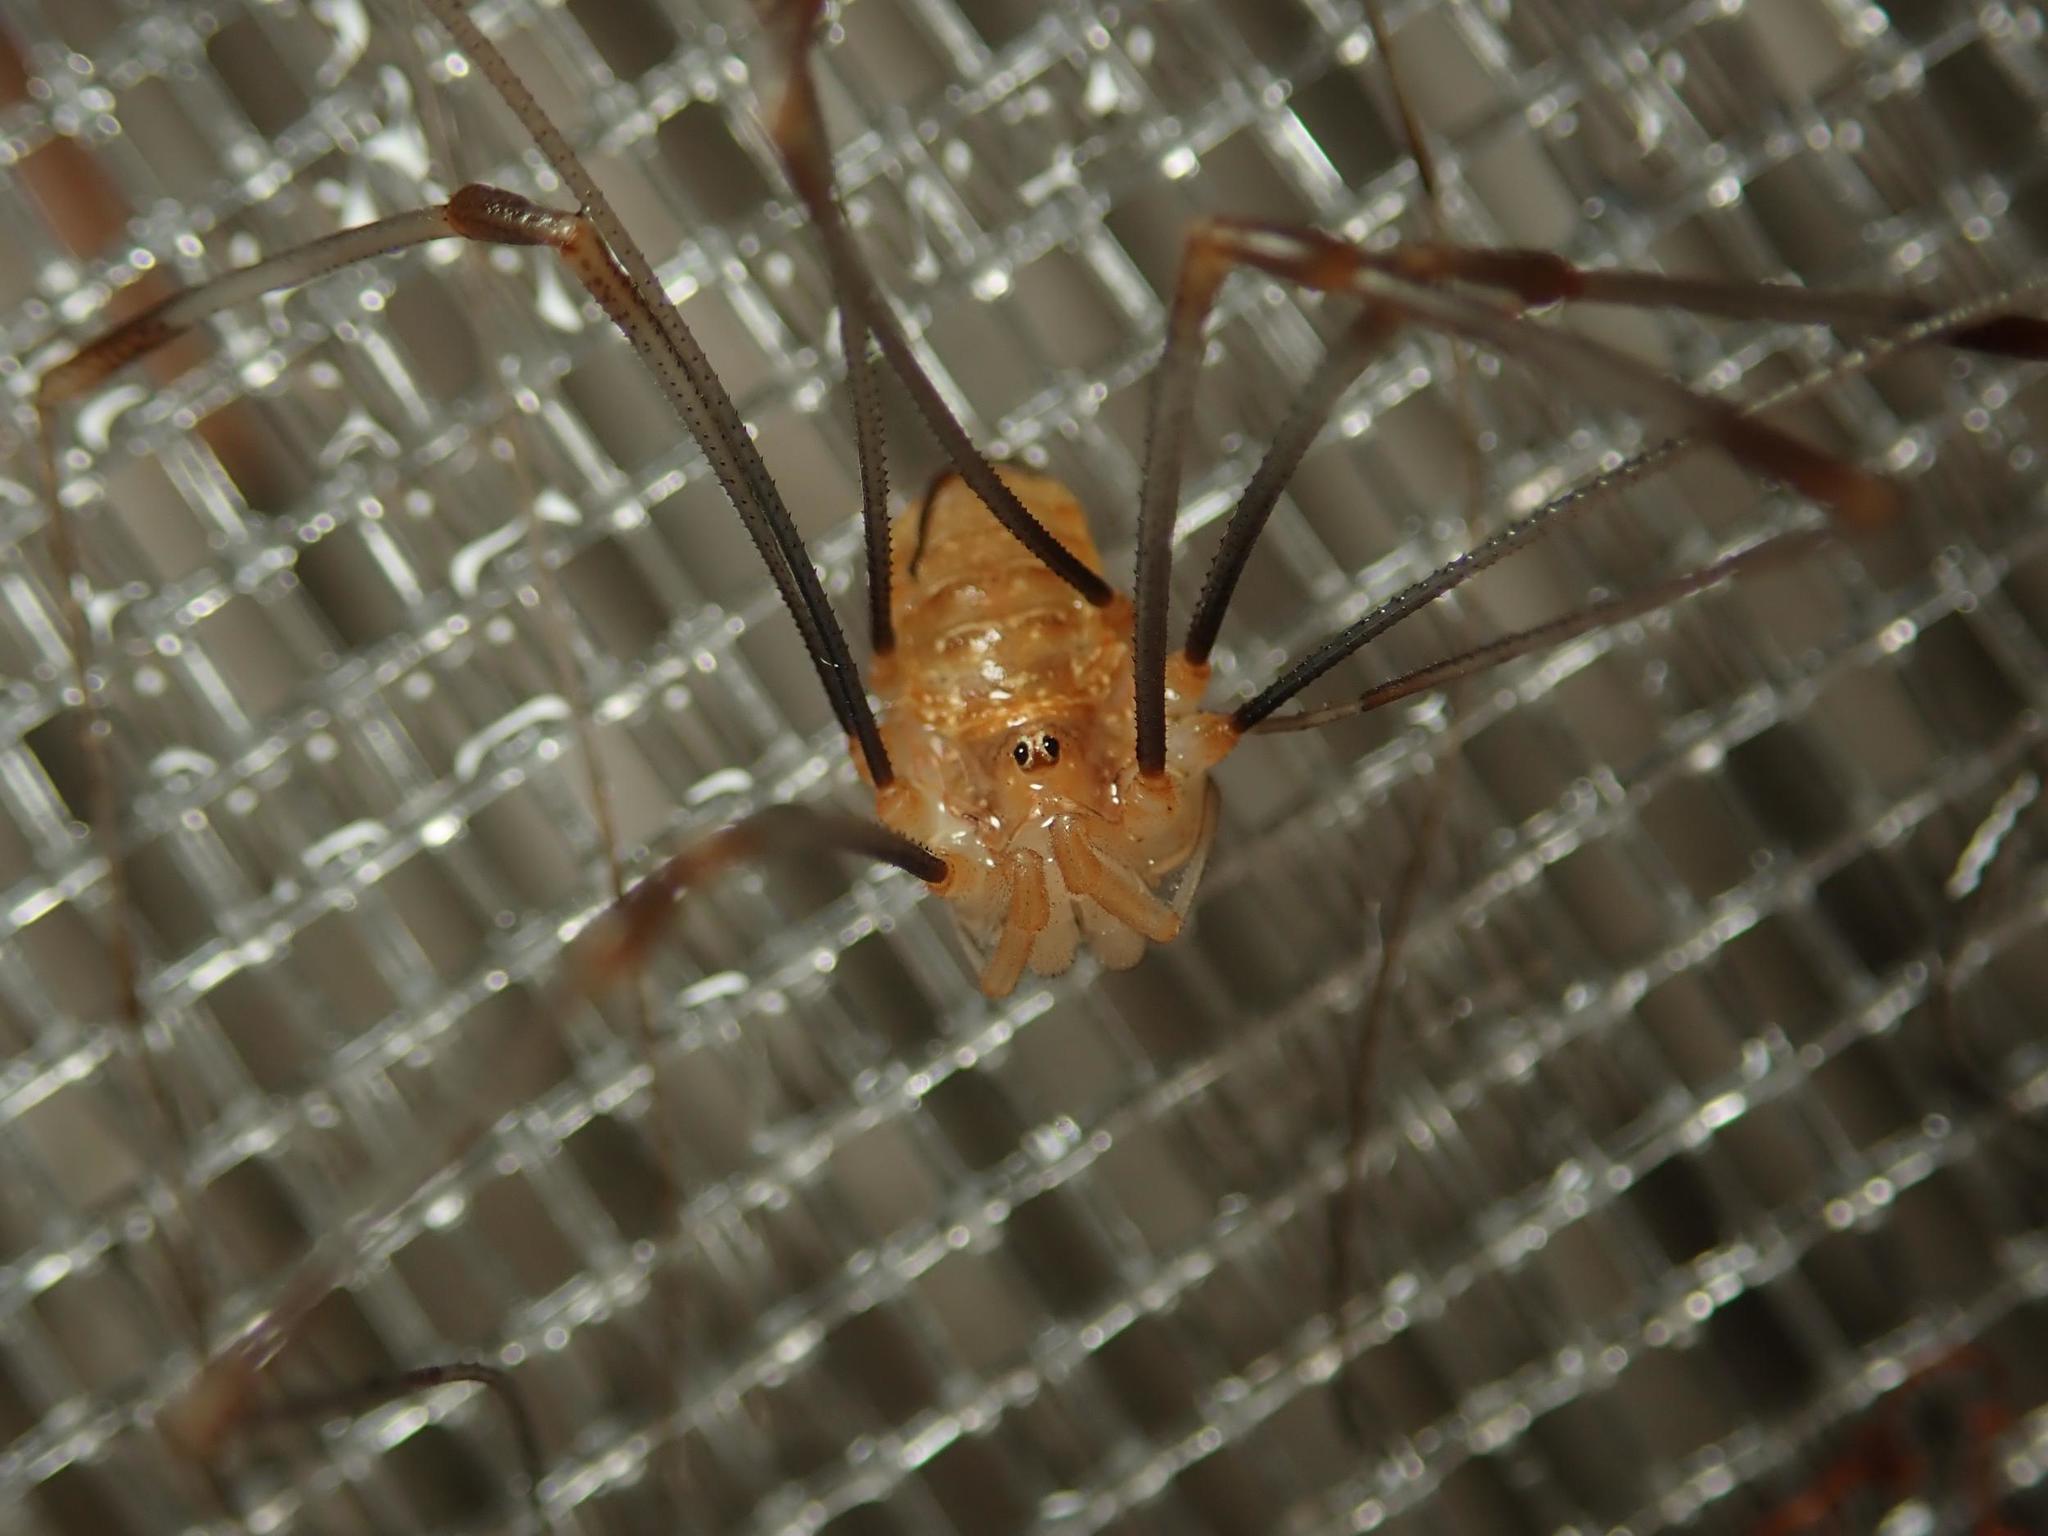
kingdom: Animalia
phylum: Arthropoda
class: Arachnida
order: Opiliones
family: Phalangiidae
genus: Opilio
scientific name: Opilio canestrinii
